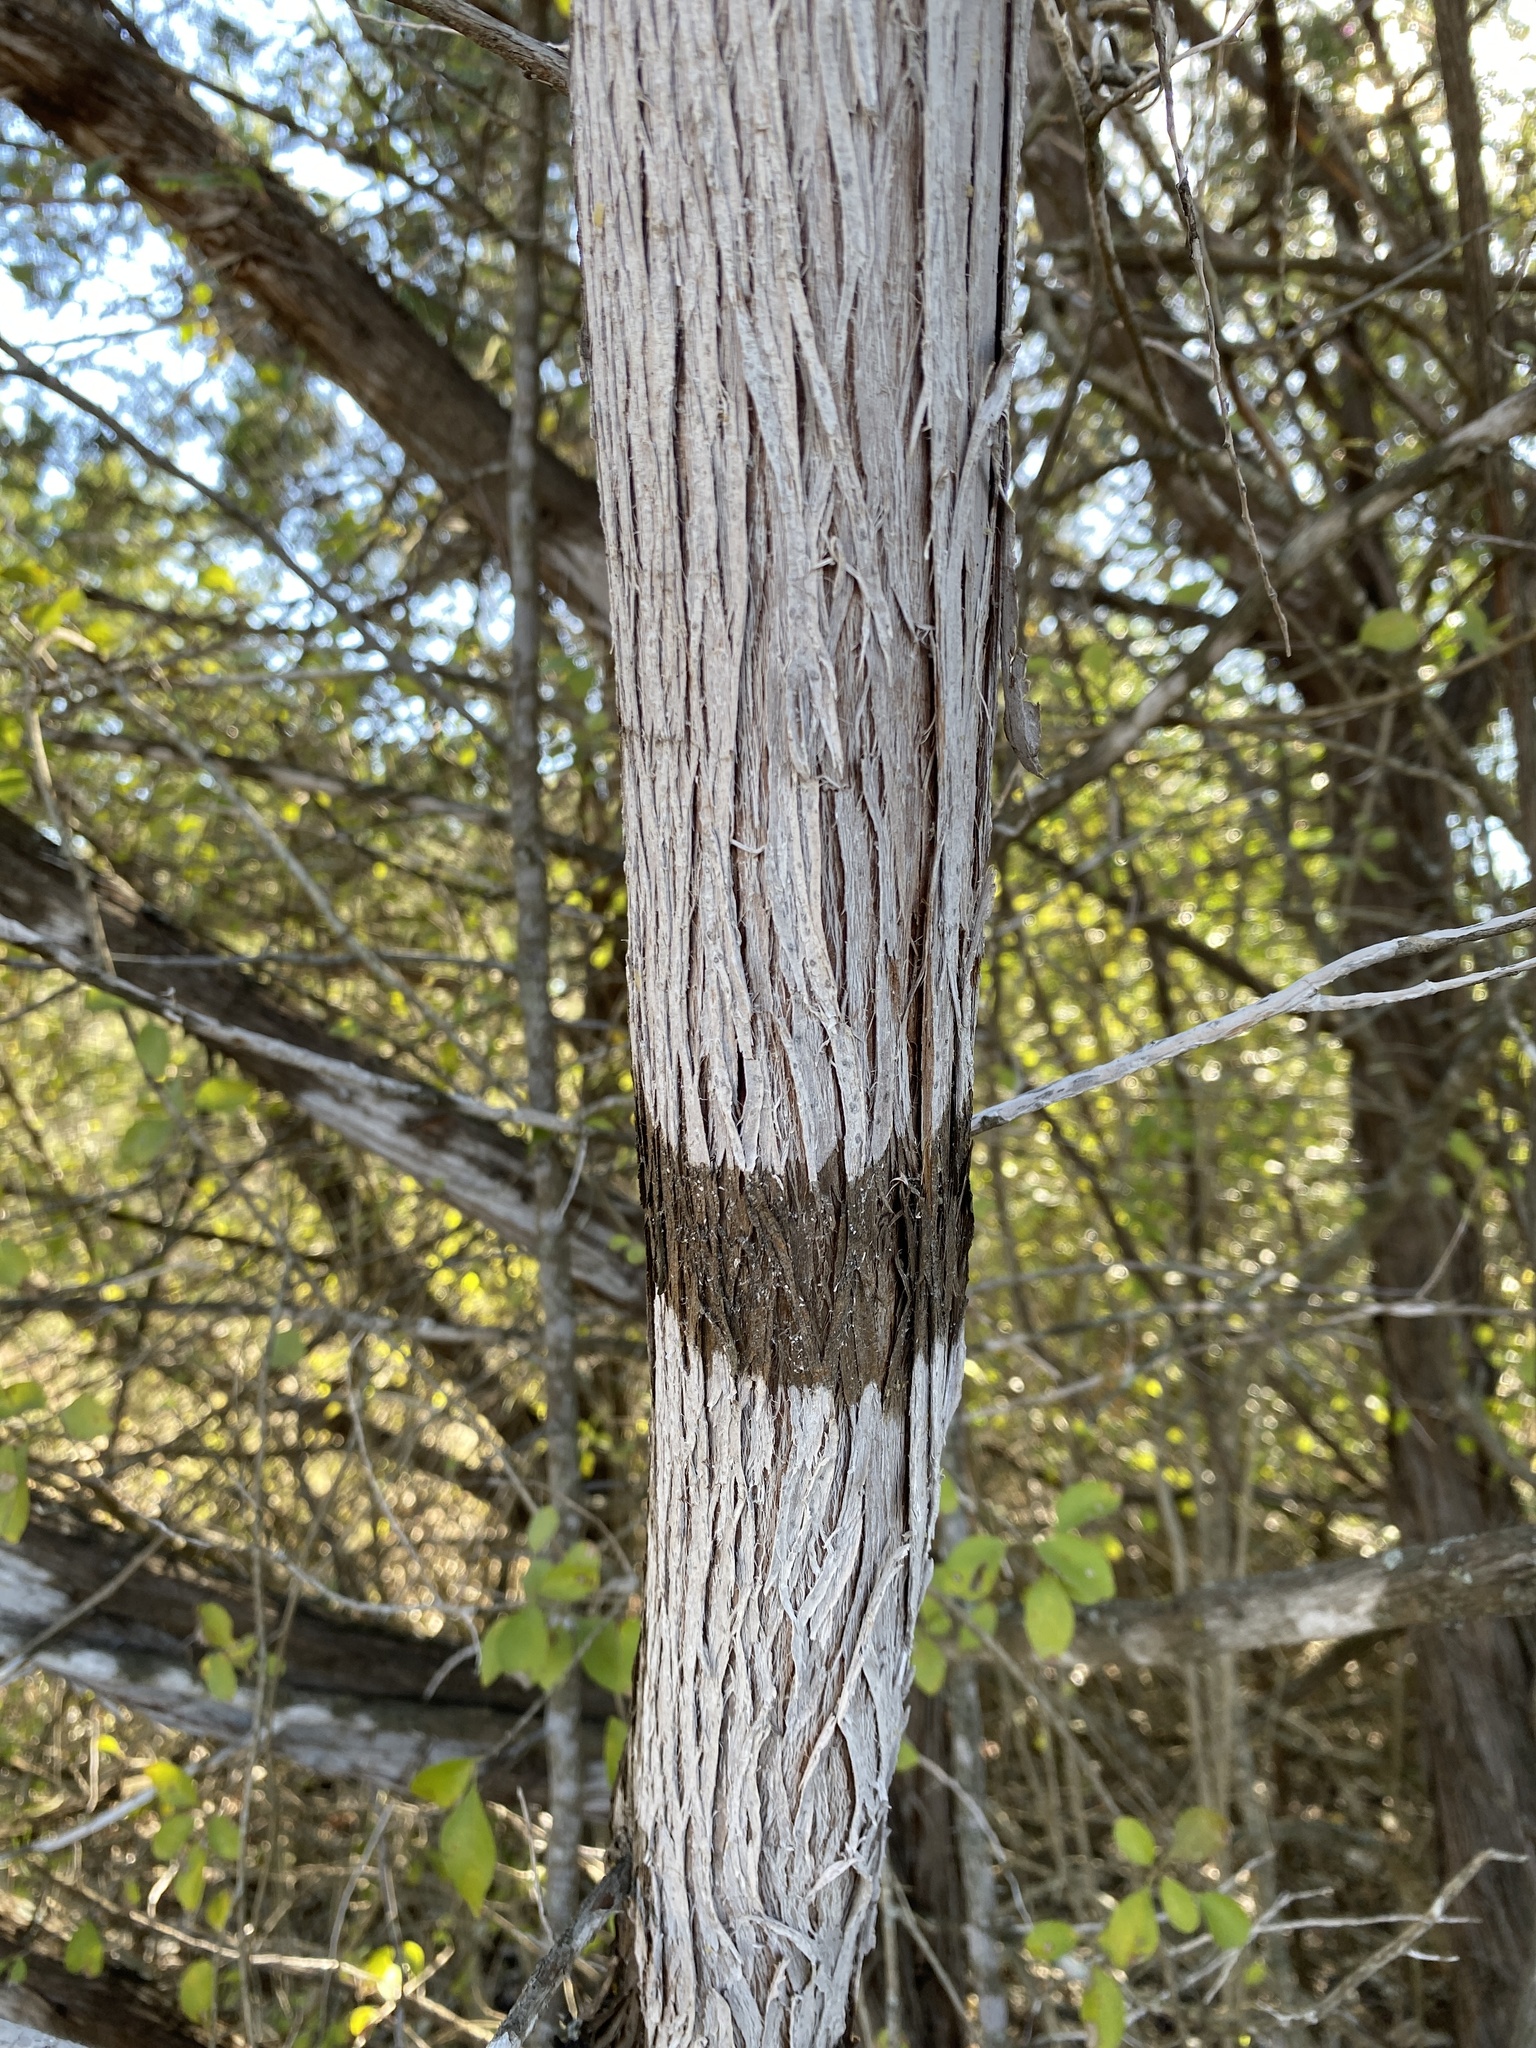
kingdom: Fungi
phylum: Ascomycota
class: Lecanoromycetes
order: Ostropales
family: Stictidaceae
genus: Robergea
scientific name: Robergea
